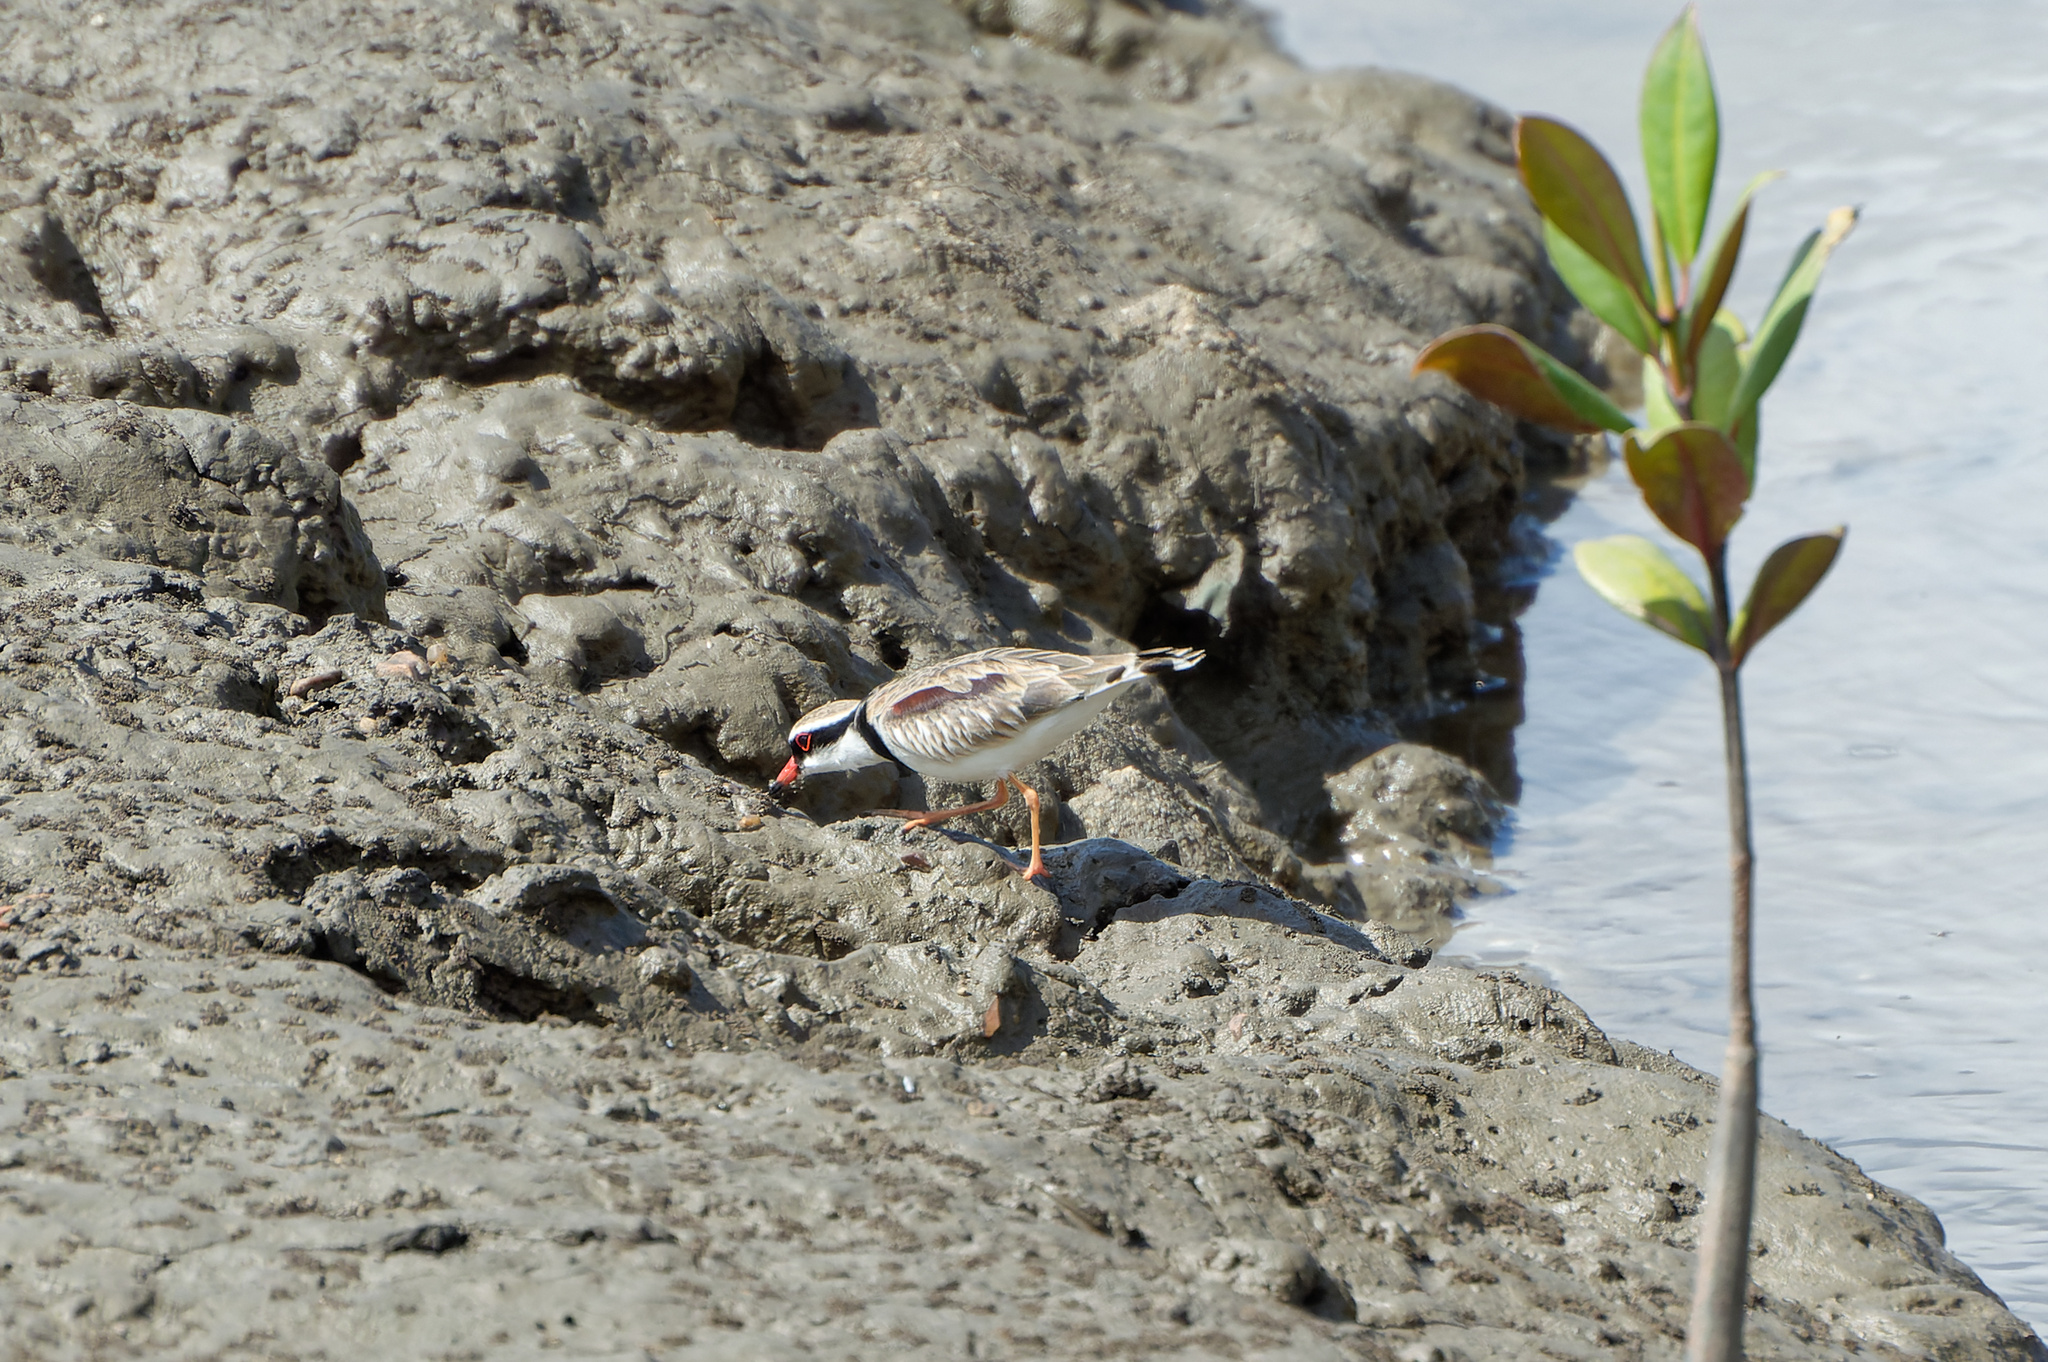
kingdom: Animalia
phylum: Chordata
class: Aves
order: Charadriiformes
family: Charadriidae
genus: Elseyornis
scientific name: Elseyornis melanops
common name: Black-fronted dotterel
